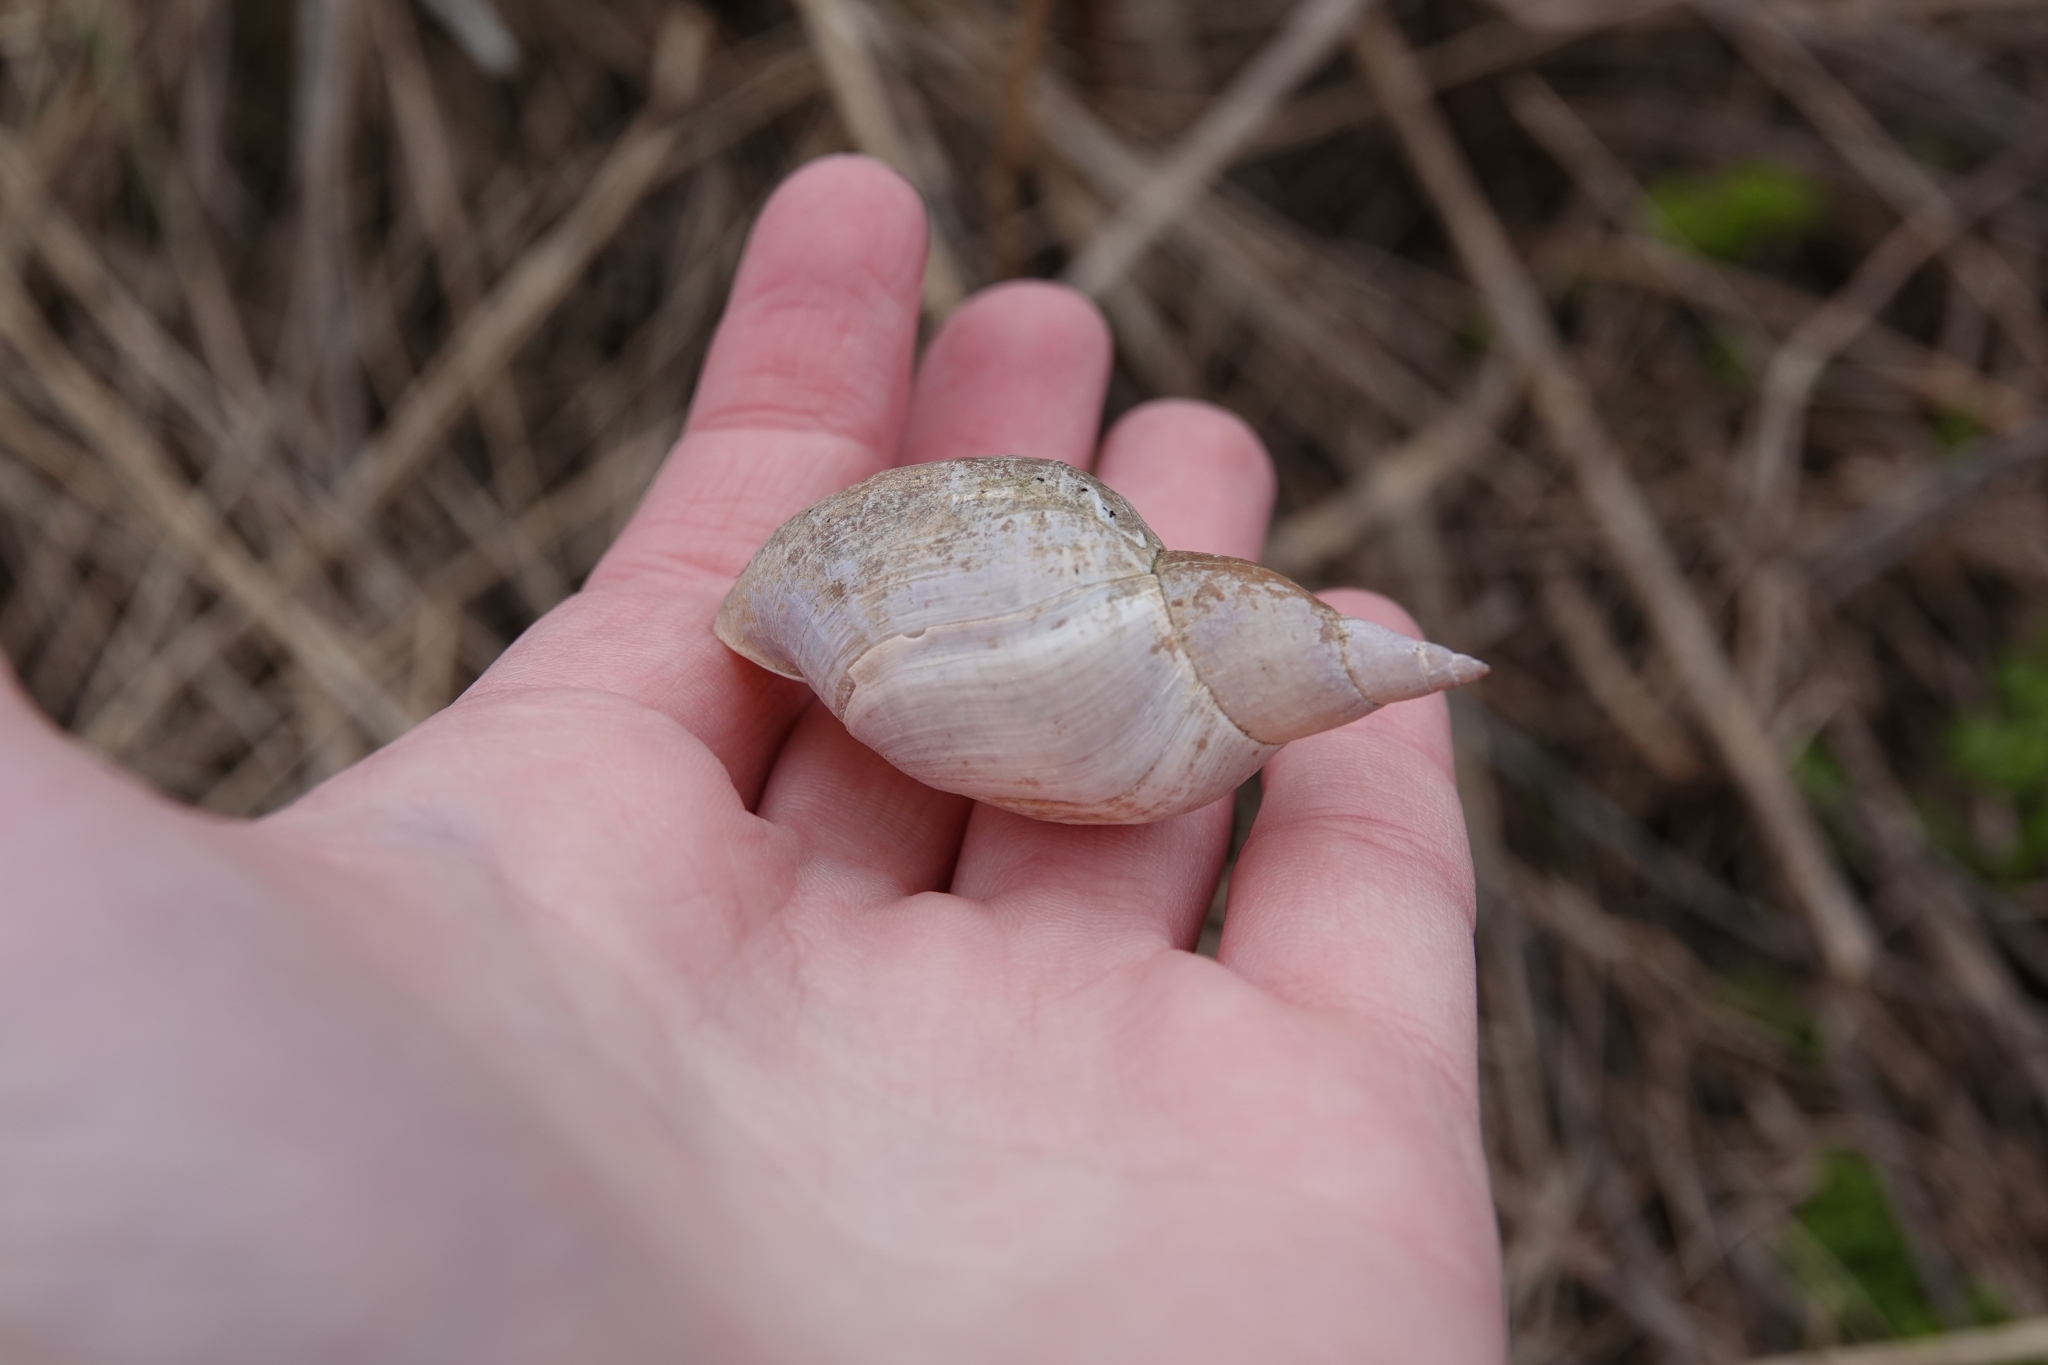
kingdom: Animalia
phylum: Mollusca
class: Gastropoda
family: Lymnaeidae
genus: Lymnaea
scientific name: Lymnaea stagnalis
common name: Great pond snail
